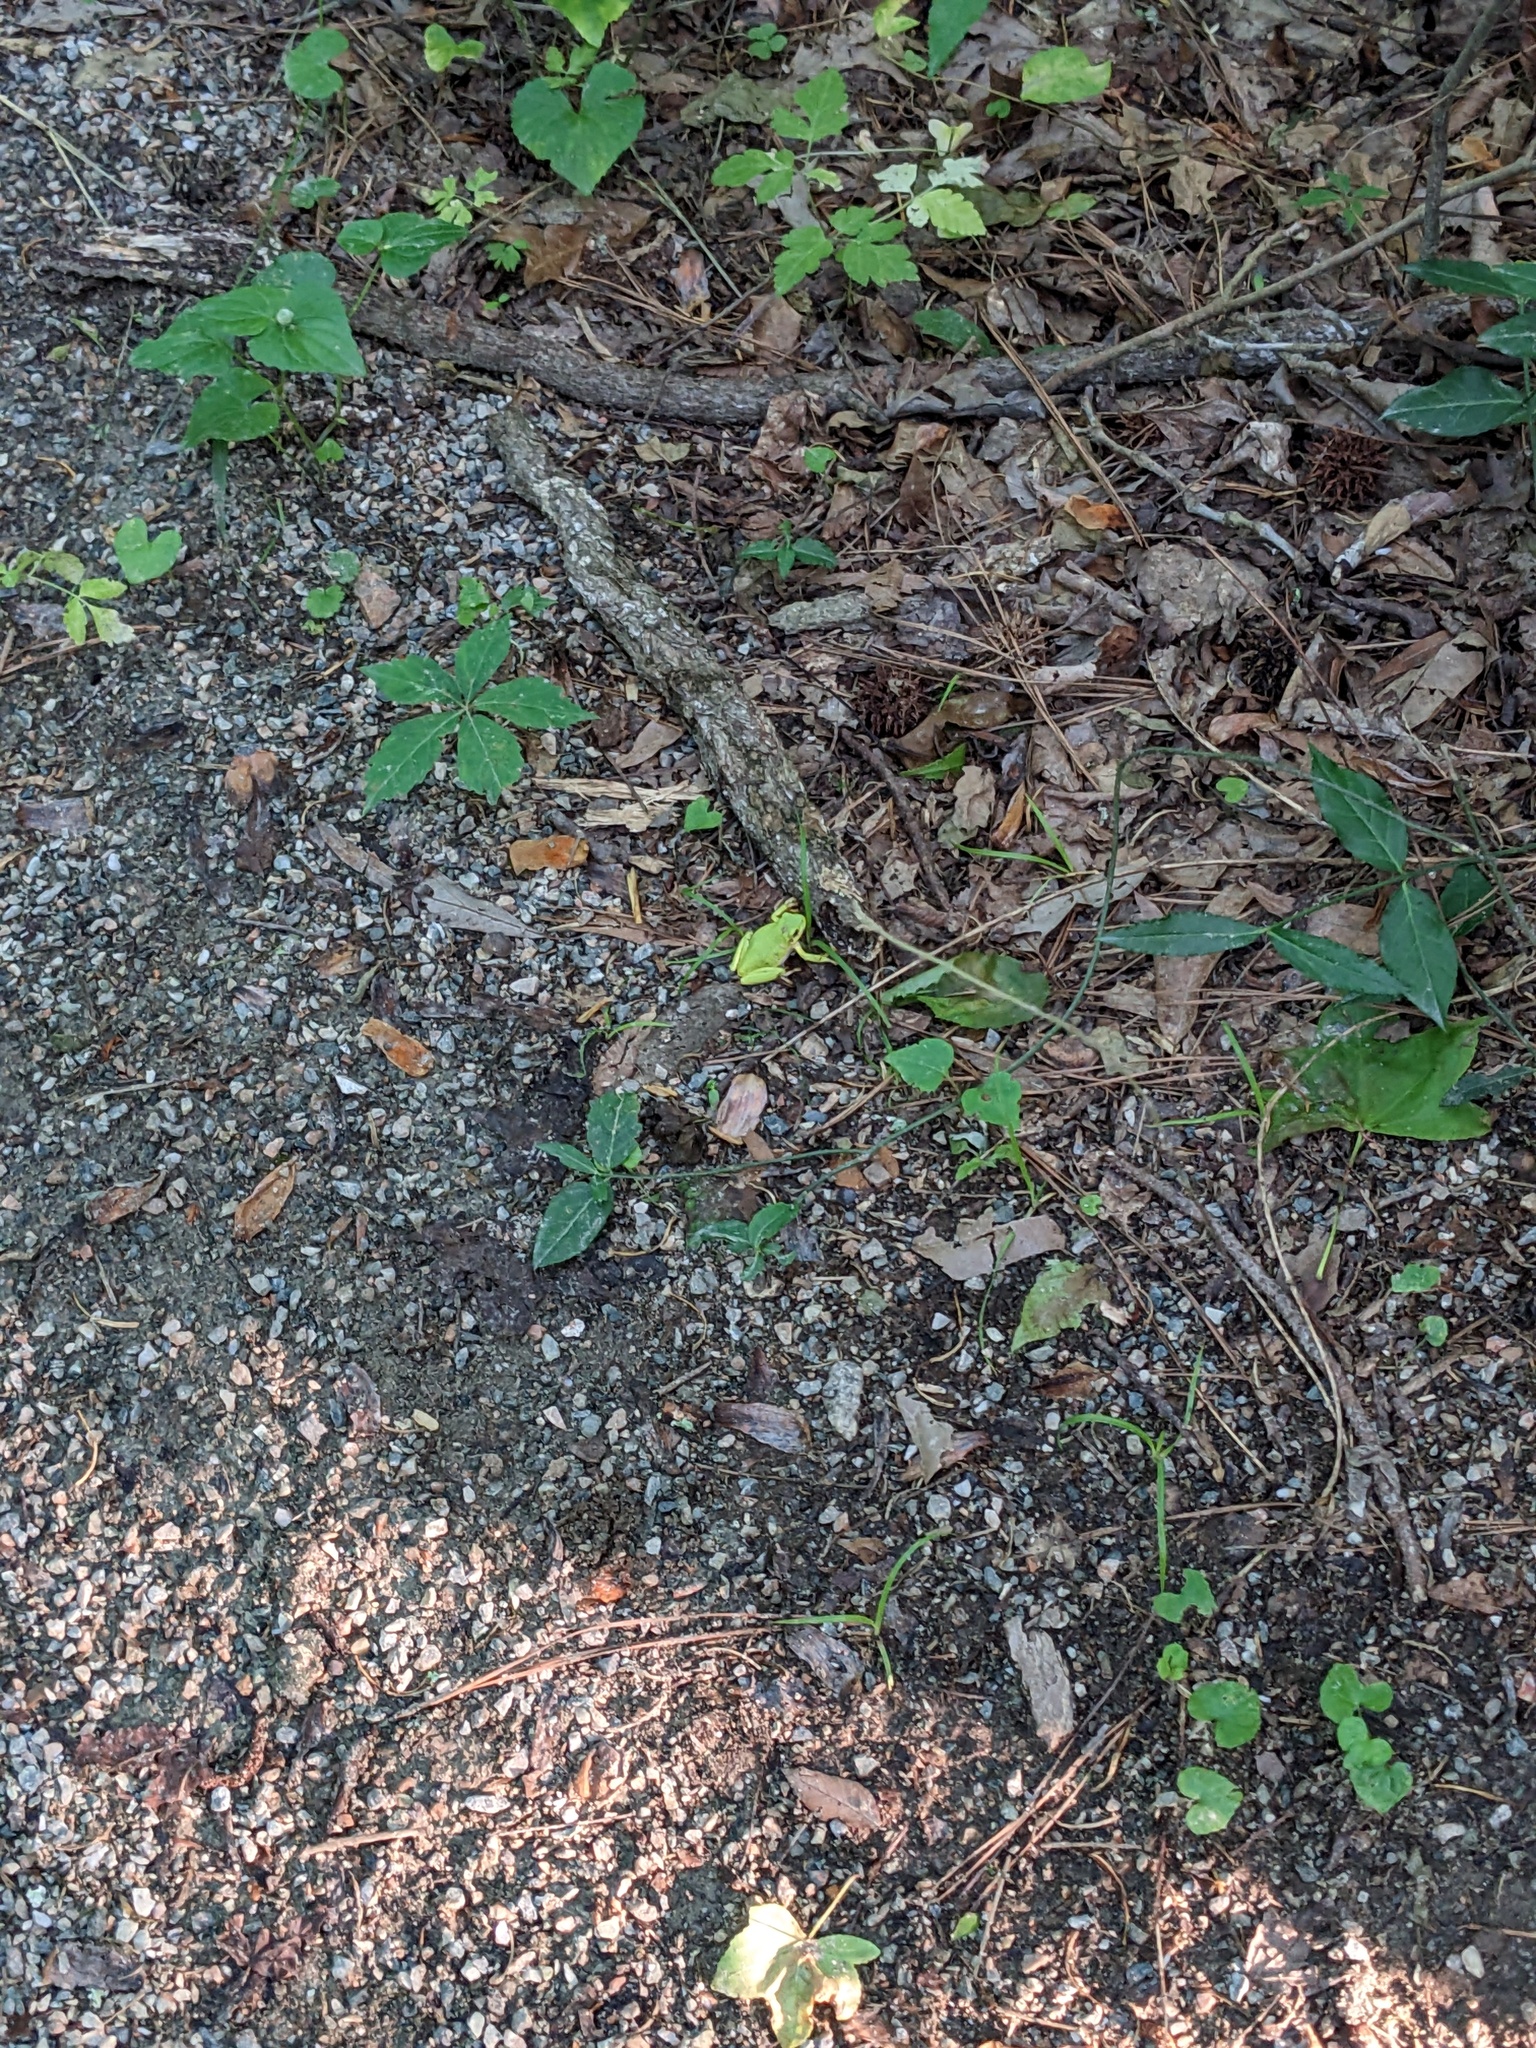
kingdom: Animalia
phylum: Chordata
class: Amphibia
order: Anura
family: Hylidae
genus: Dryophytes
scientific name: Dryophytes squirellus
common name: Squirrel treefrog
